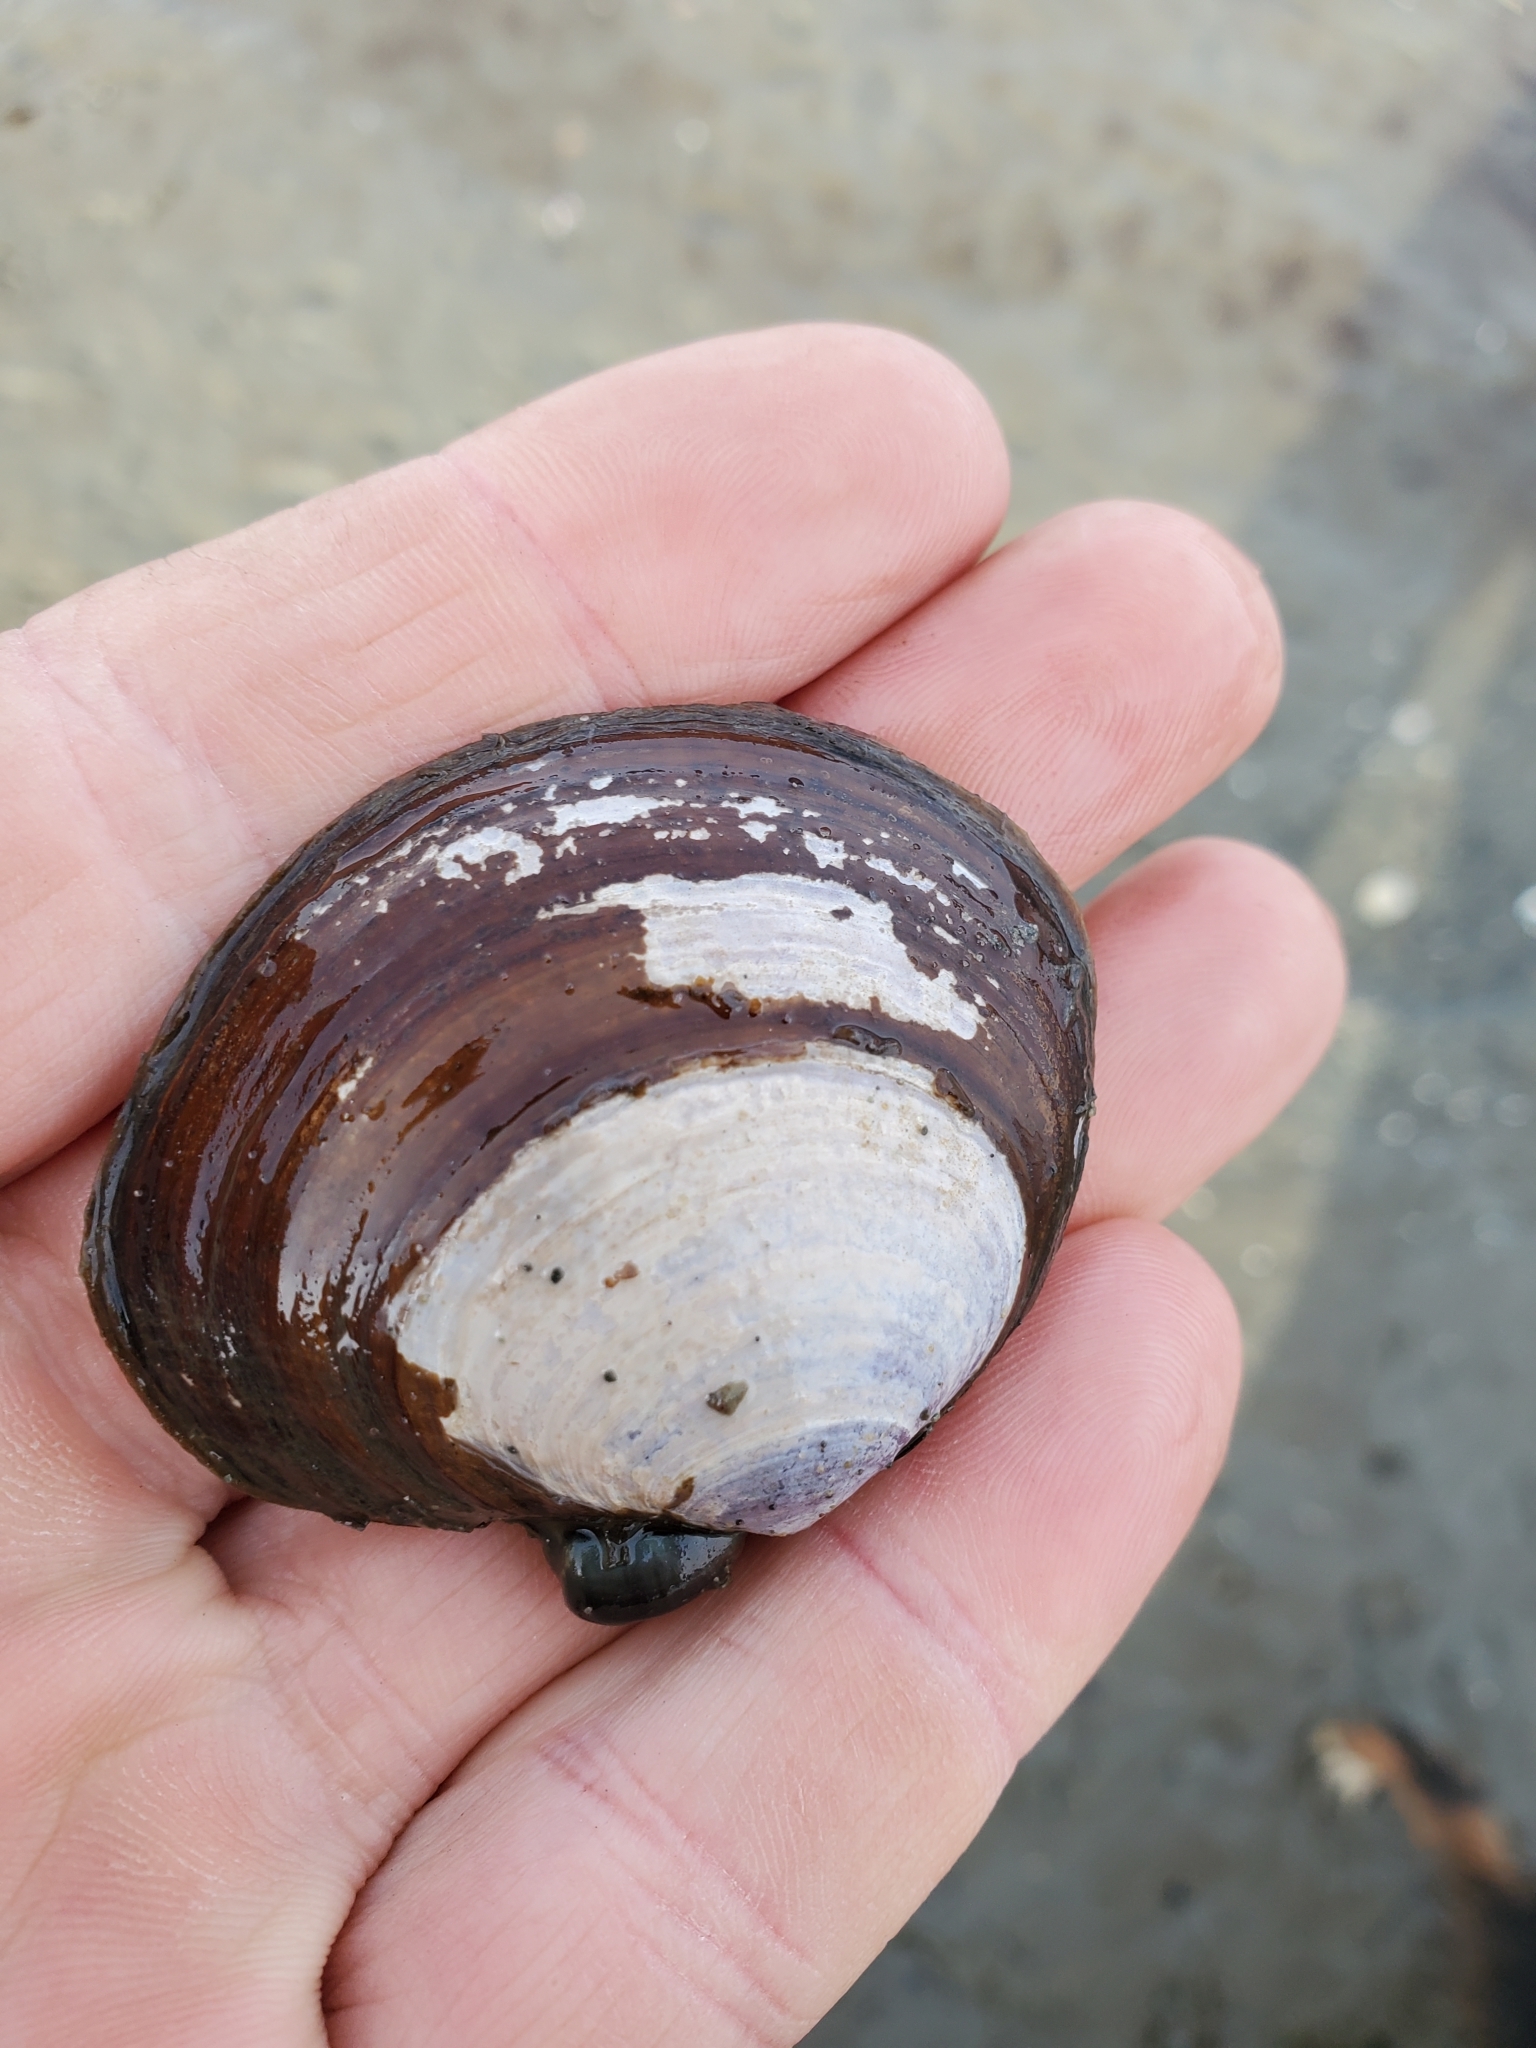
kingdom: Animalia
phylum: Mollusca
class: Bivalvia
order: Cardiida
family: Psammobiidae
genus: Nuttallia
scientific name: Nuttallia obscurata
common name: Purple mahogany-clam
